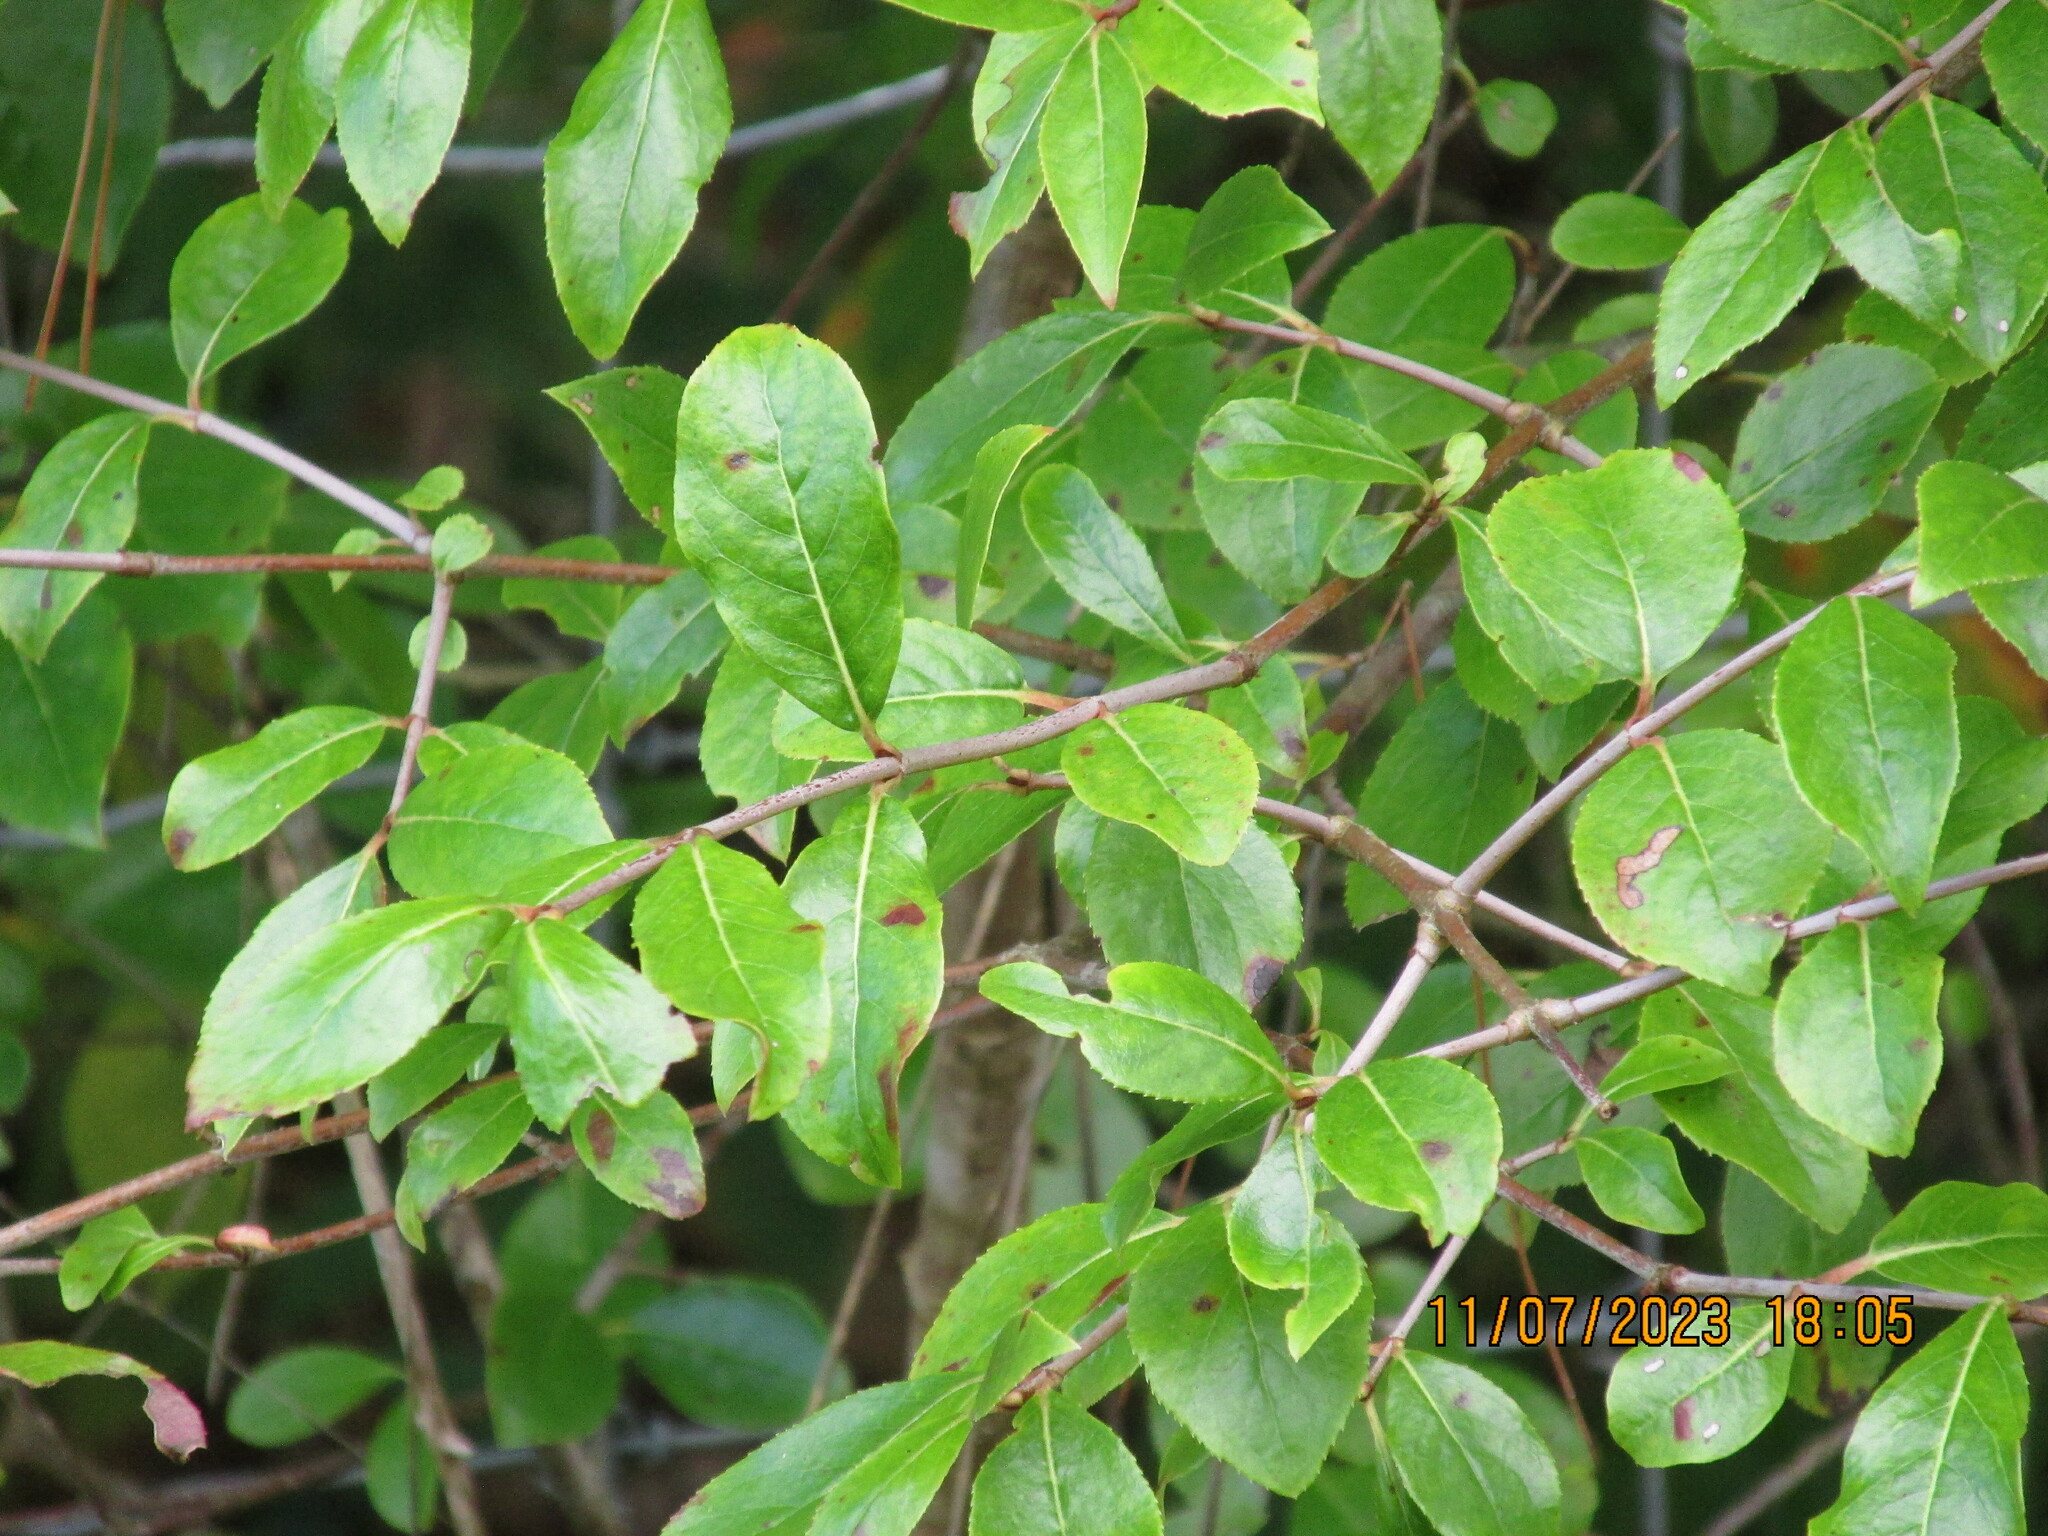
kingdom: Plantae
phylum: Tracheophyta
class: Magnoliopsida
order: Dipsacales
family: Viburnaceae
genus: Viburnum
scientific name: Viburnum rufidulum
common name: Blue haw
